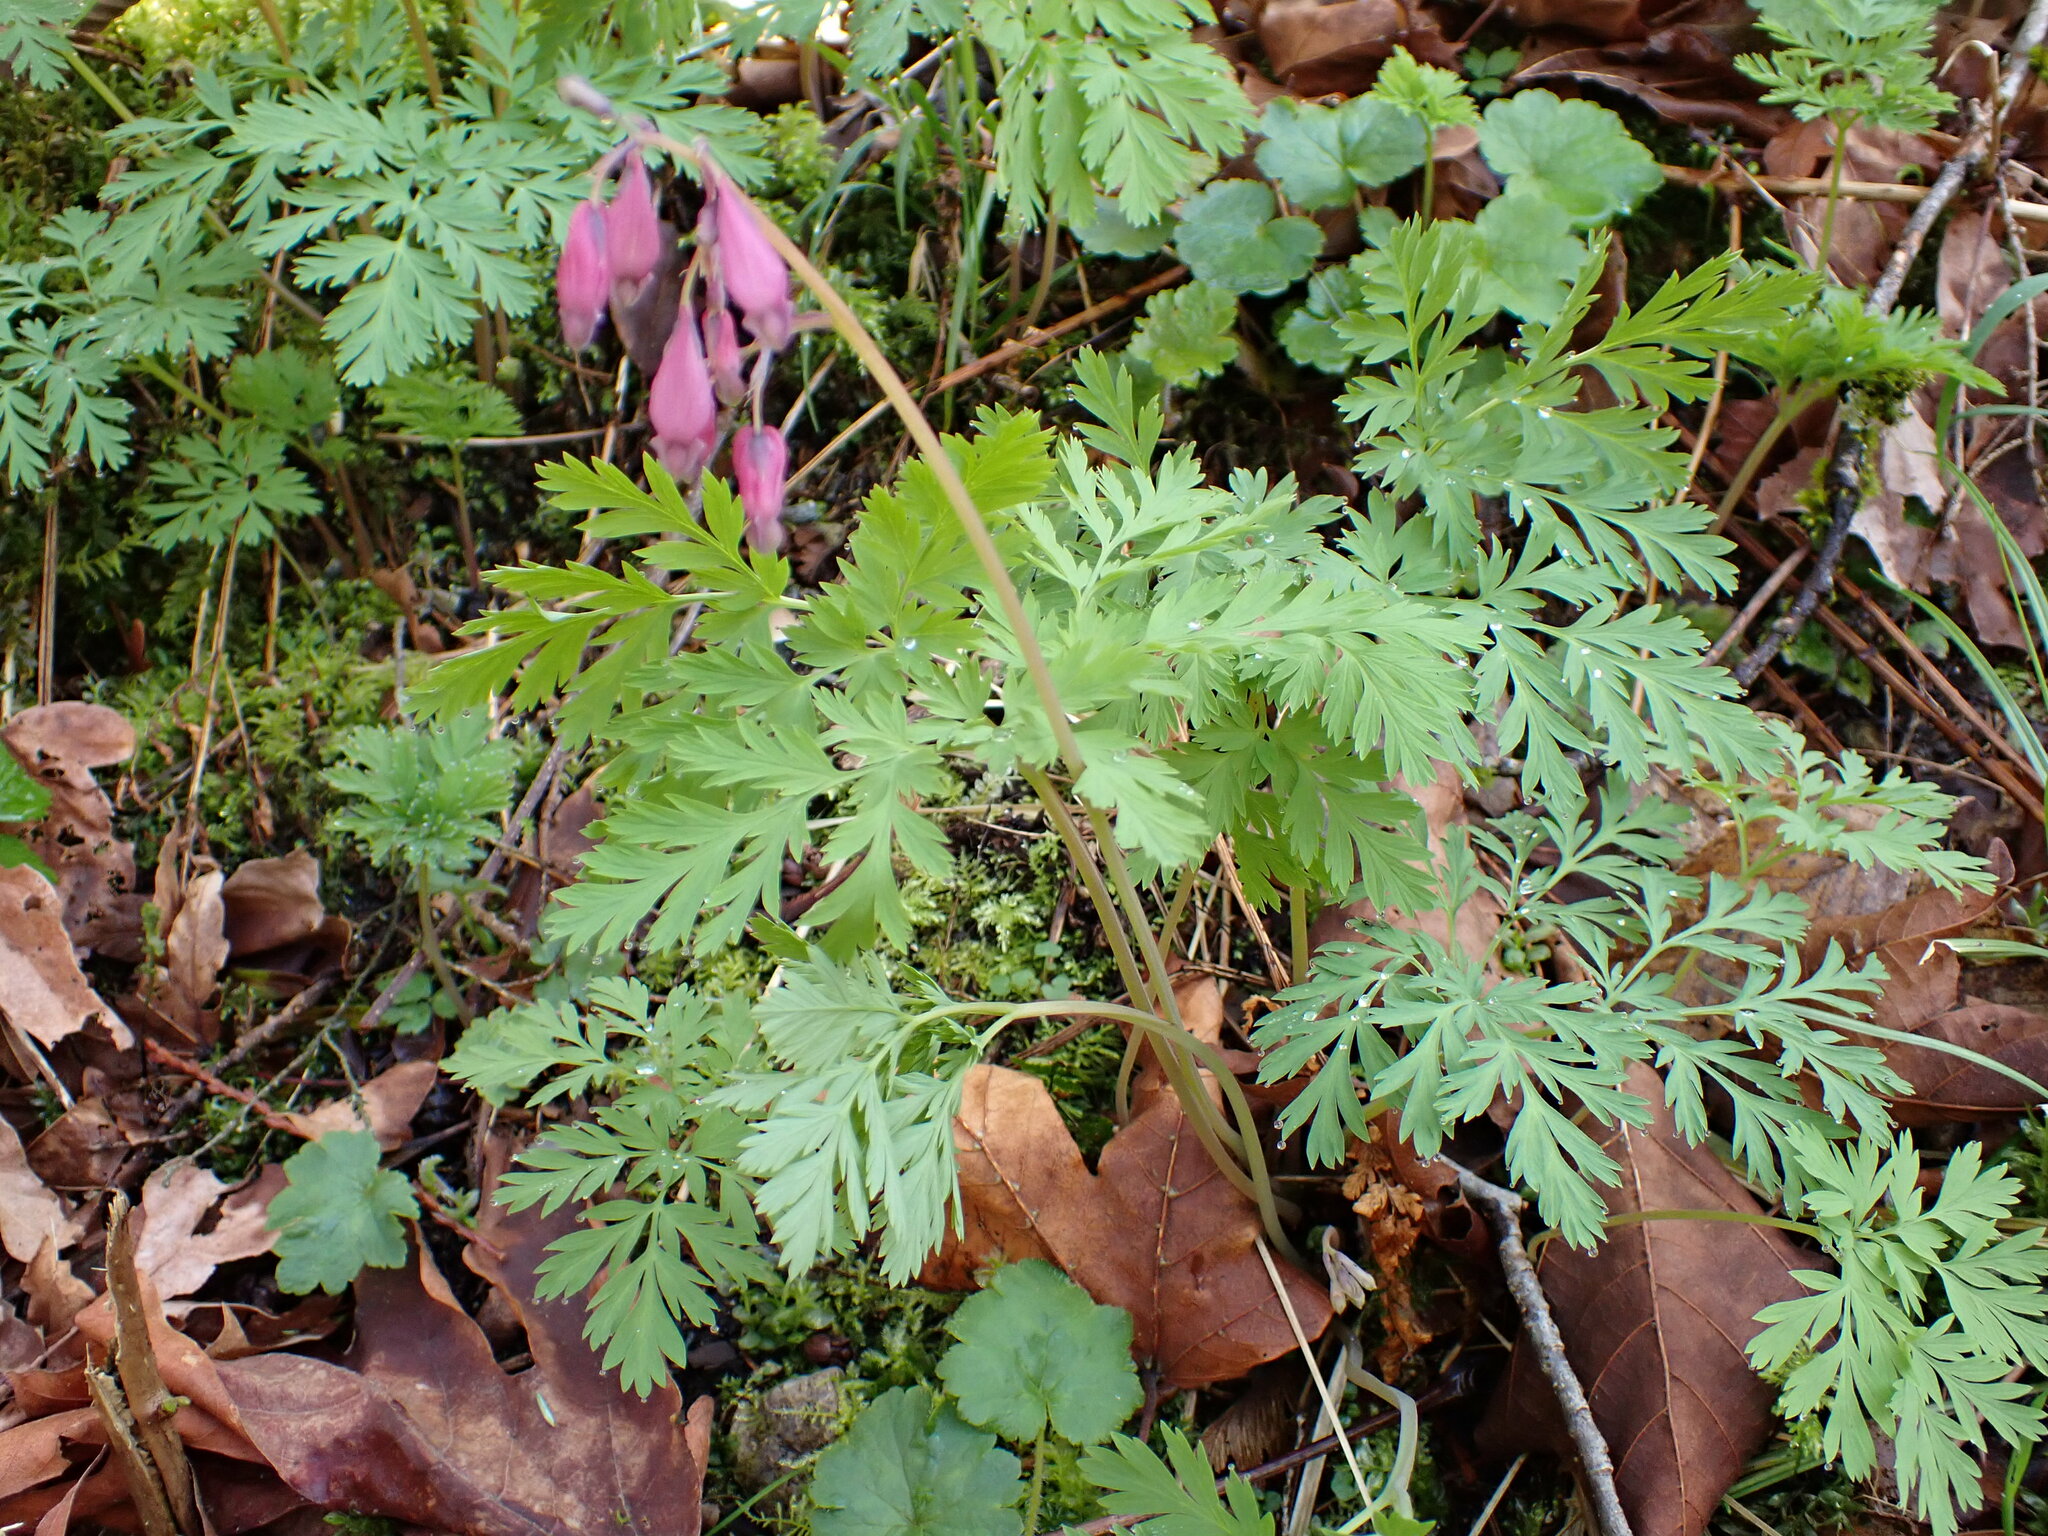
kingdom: Plantae
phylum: Tracheophyta
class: Magnoliopsida
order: Ranunculales
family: Papaveraceae
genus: Dicentra
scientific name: Dicentra formosa
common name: Bleeding-heart
